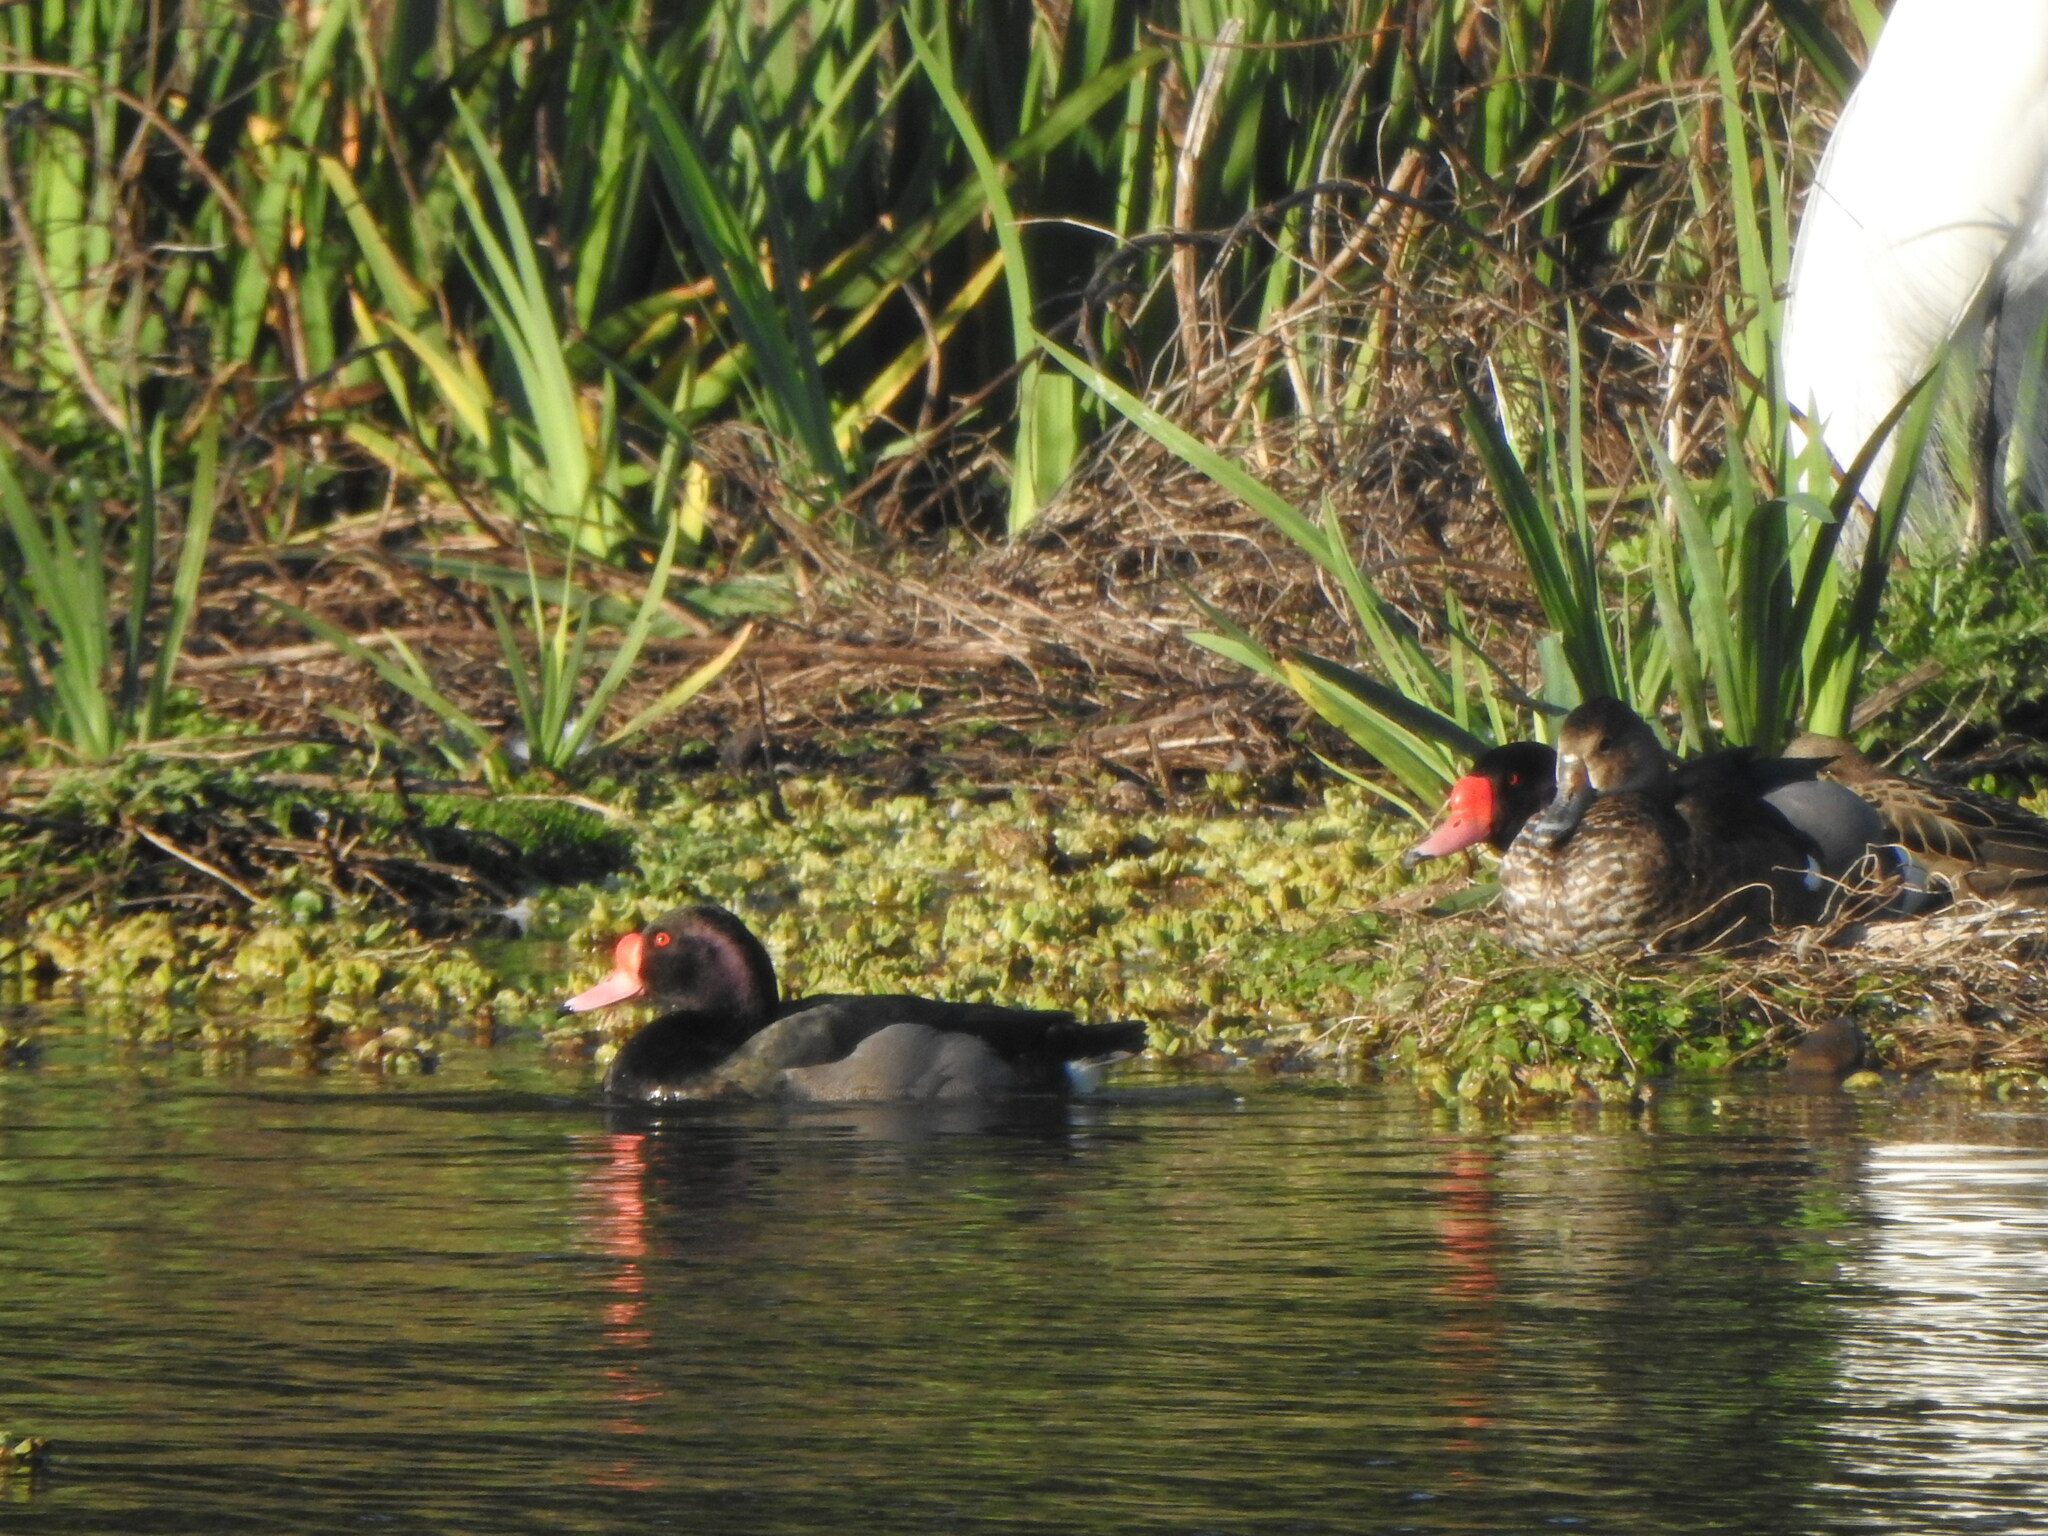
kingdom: Animalia
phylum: Chordata
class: Aves
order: Anseriformes
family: Anatidae
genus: Netta
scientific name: Netta peposaca
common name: Rosy-billed pochard
